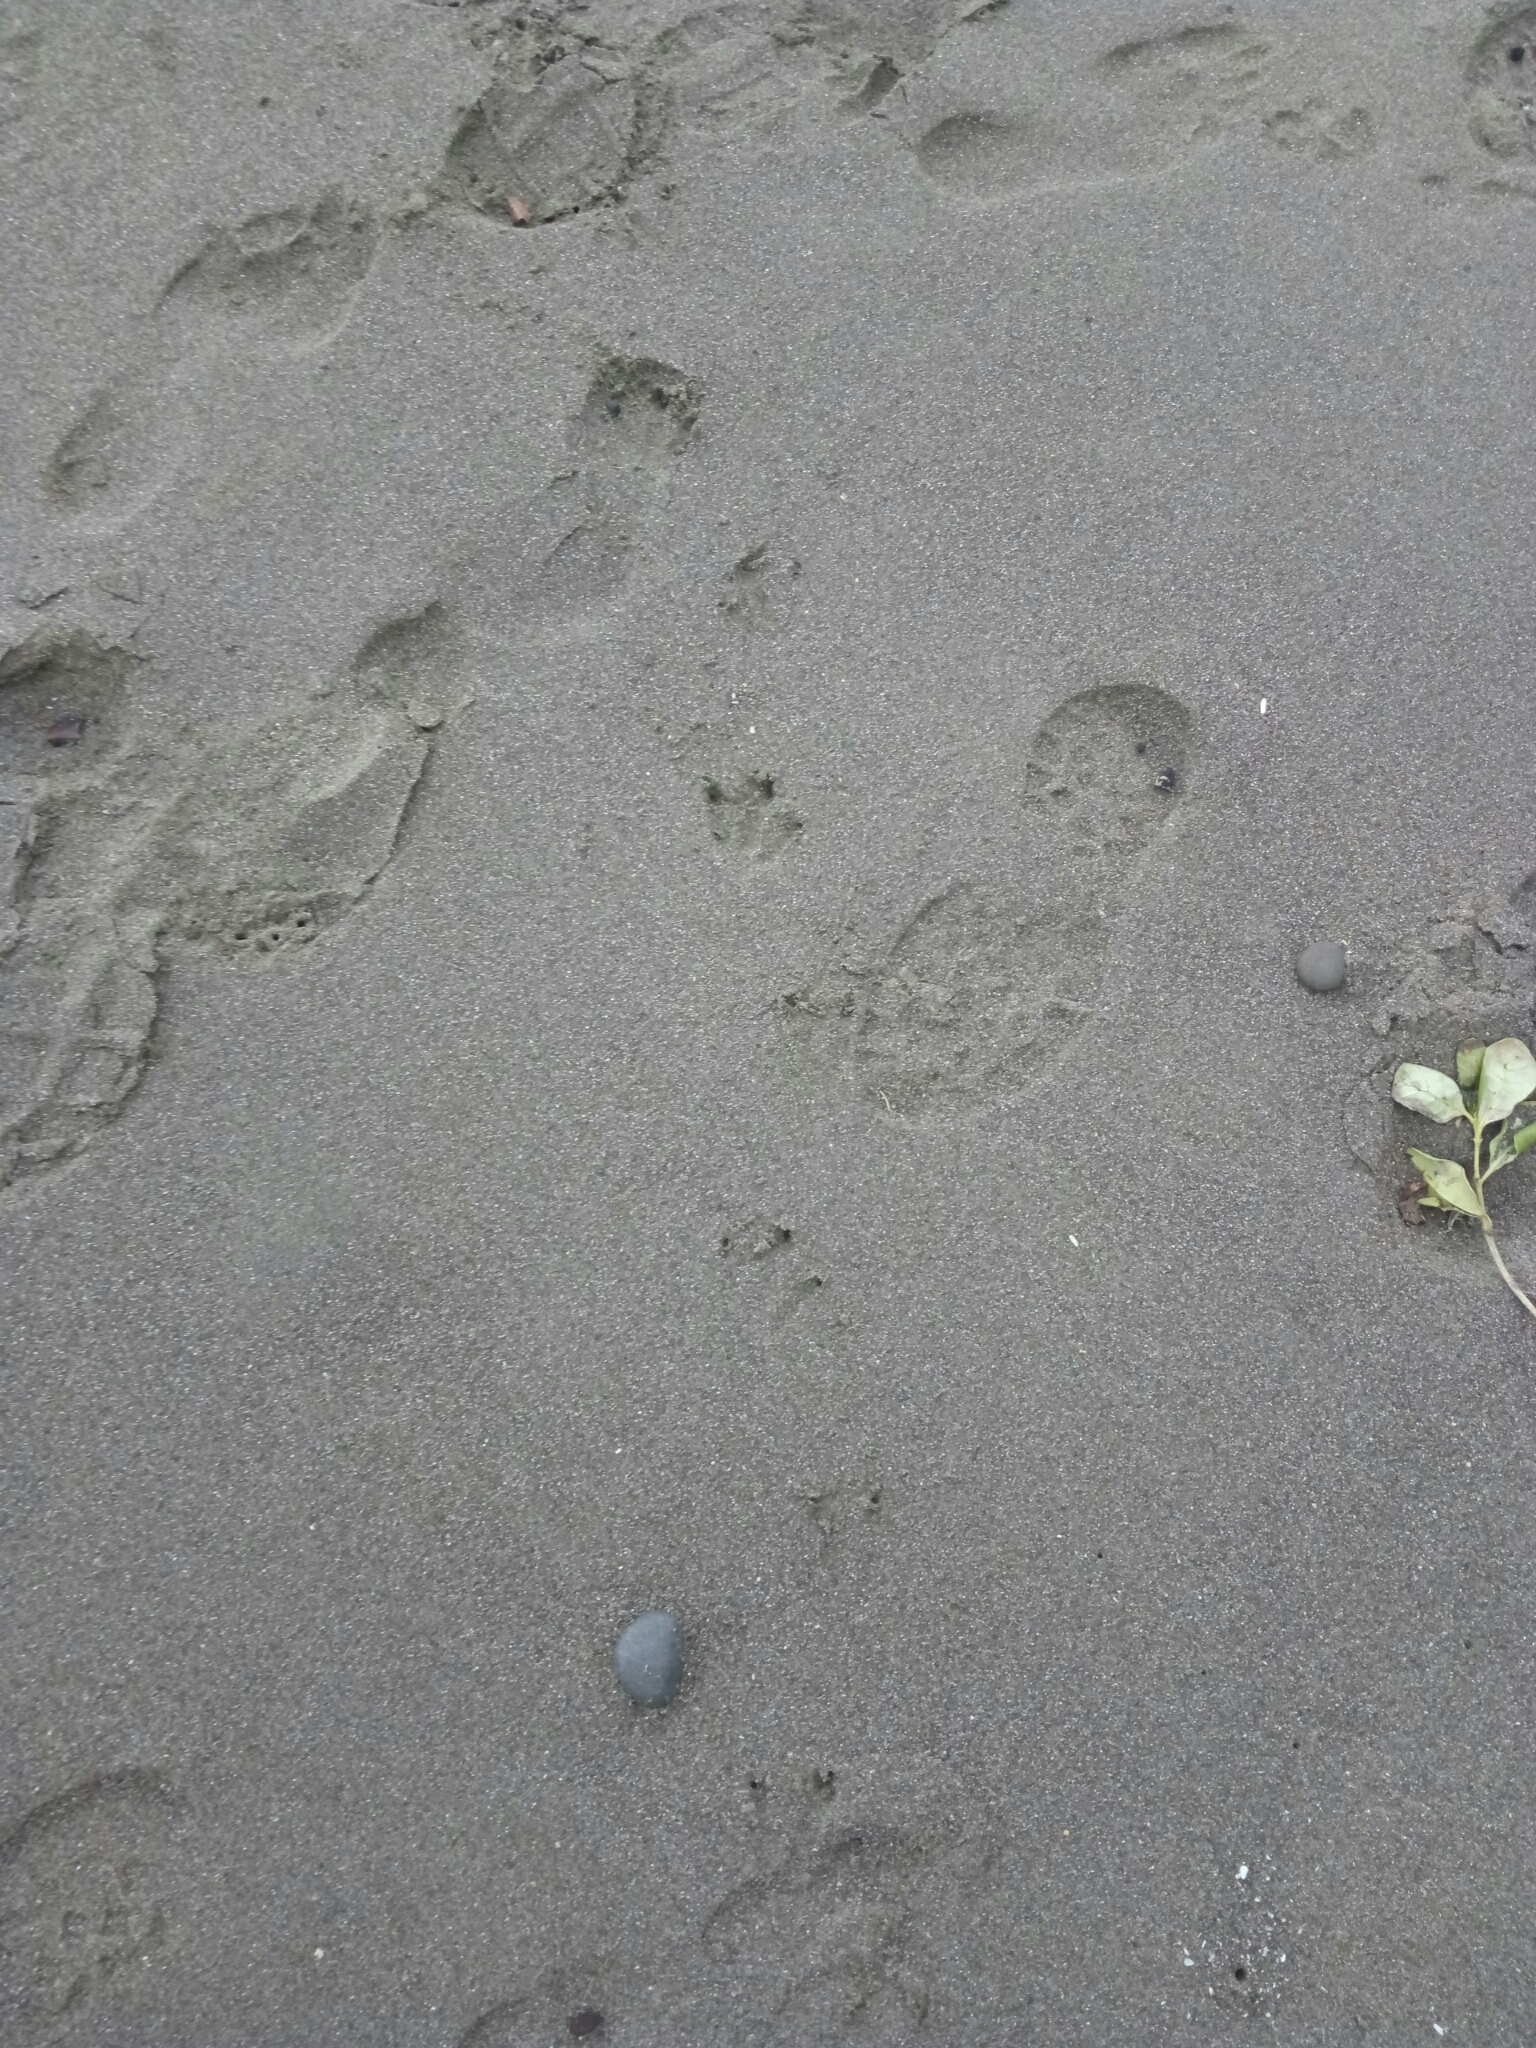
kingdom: Animalia
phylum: Chordata
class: Aves
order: Sphenisciformes
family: Spheniscidae
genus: Eudyptula
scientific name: Eudyptula minor
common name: Little penguin
